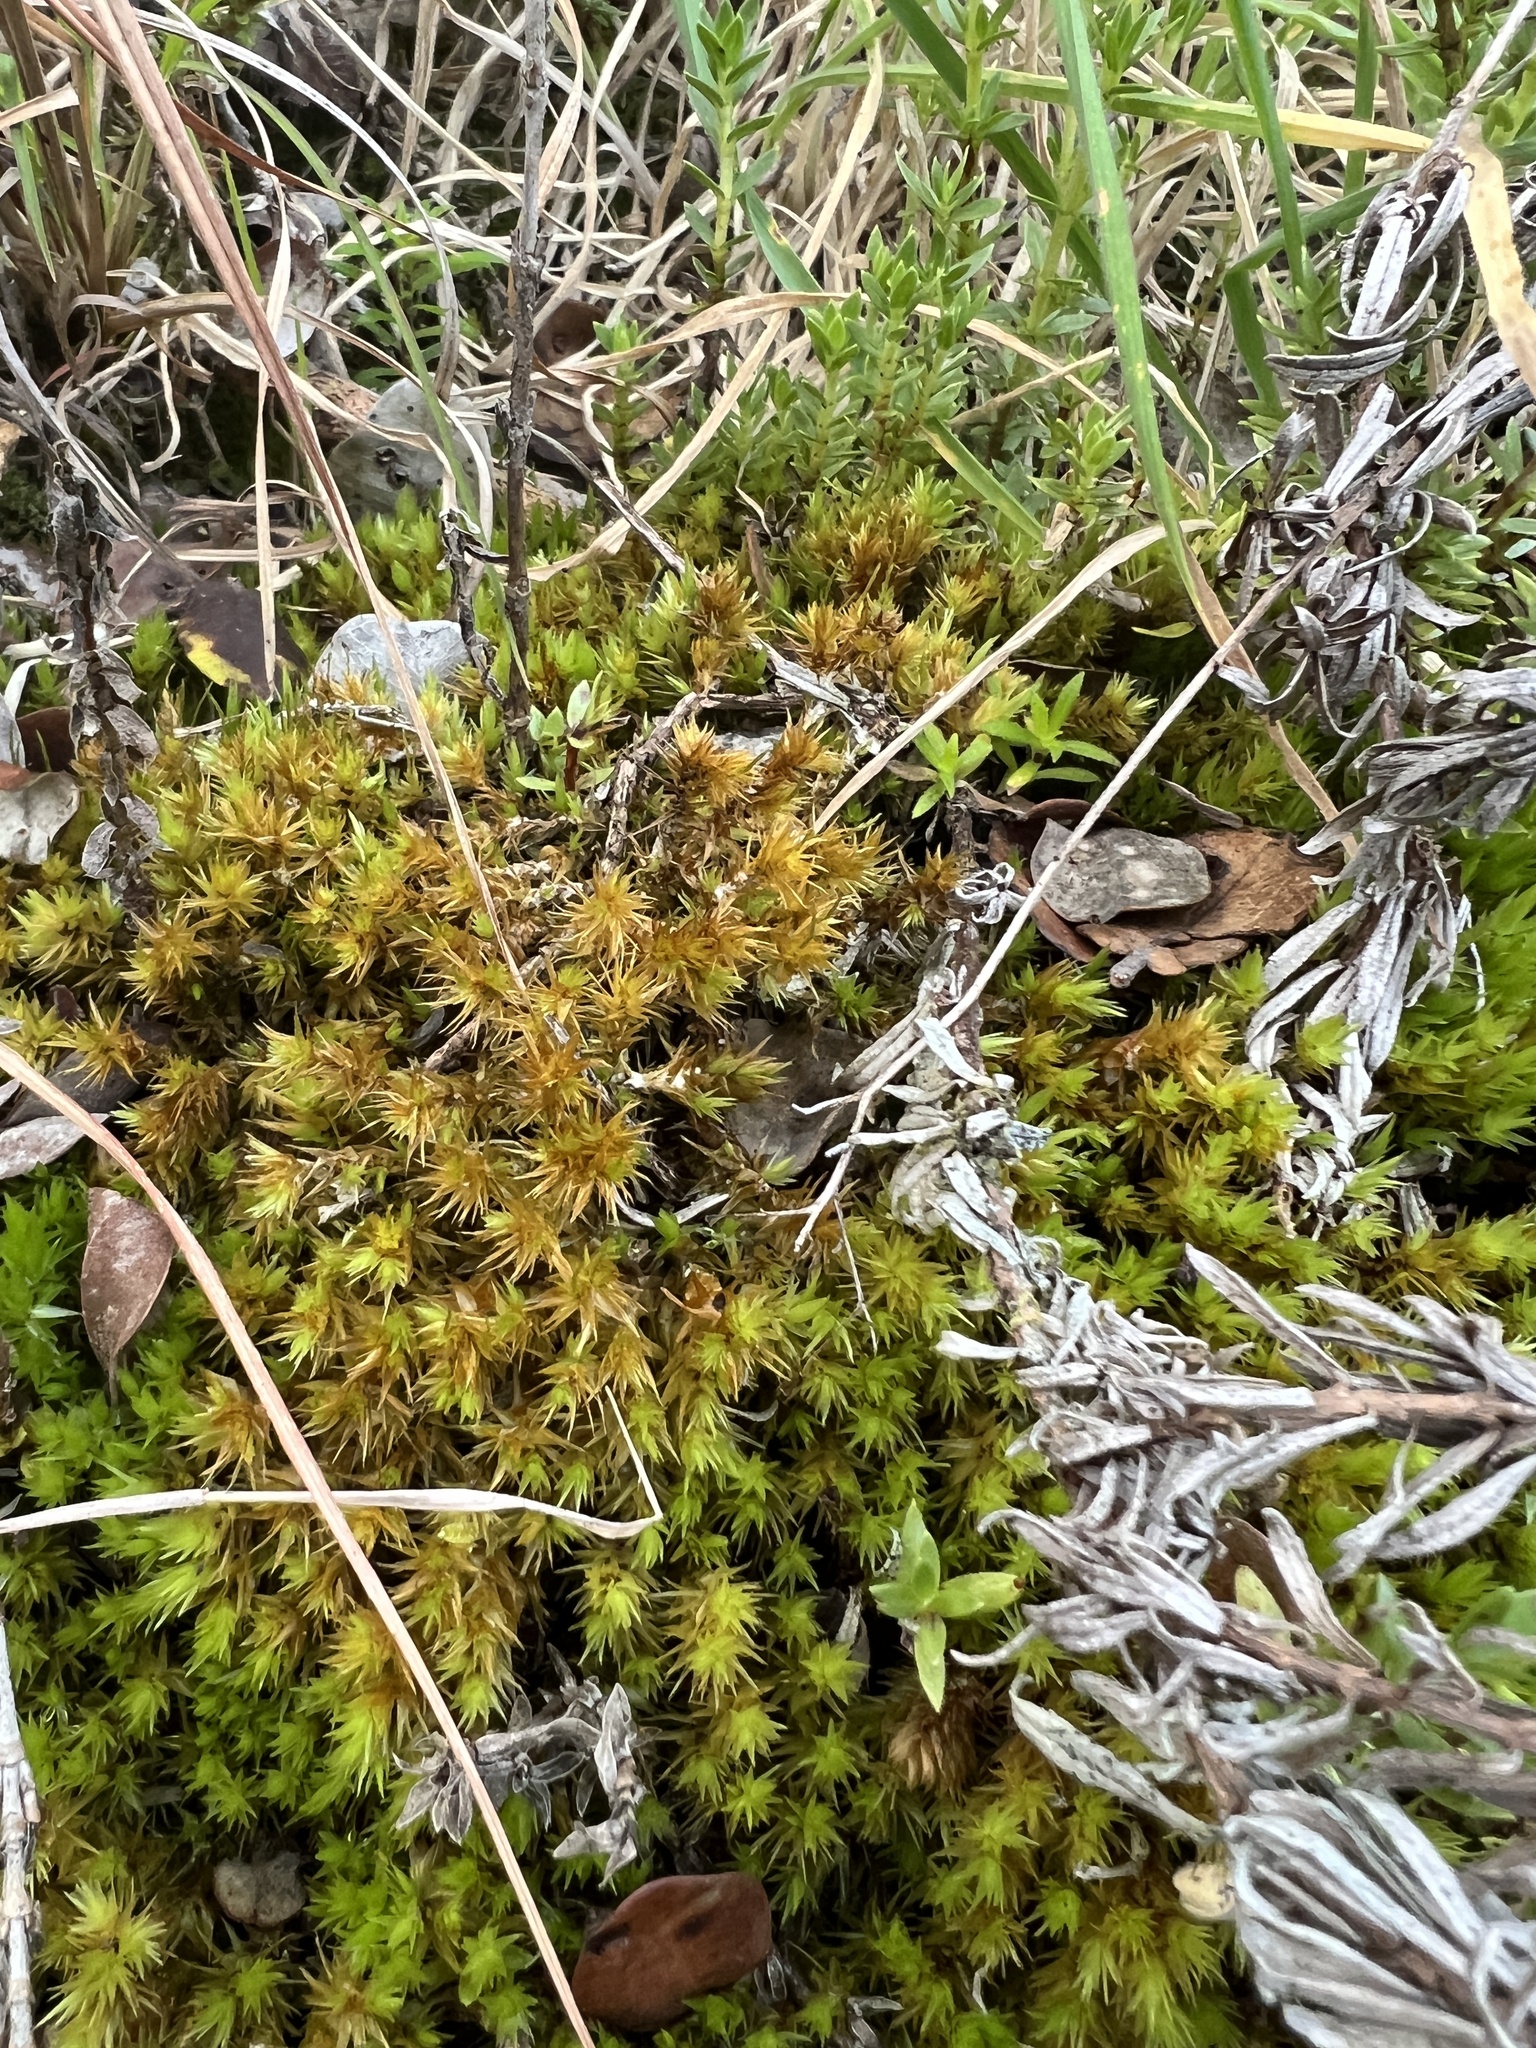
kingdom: Plantae
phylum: Bryophyta
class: Bryopsida
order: Dicranales
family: Dicranaceae
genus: Dicranum
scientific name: Dicranum speirophyllum
